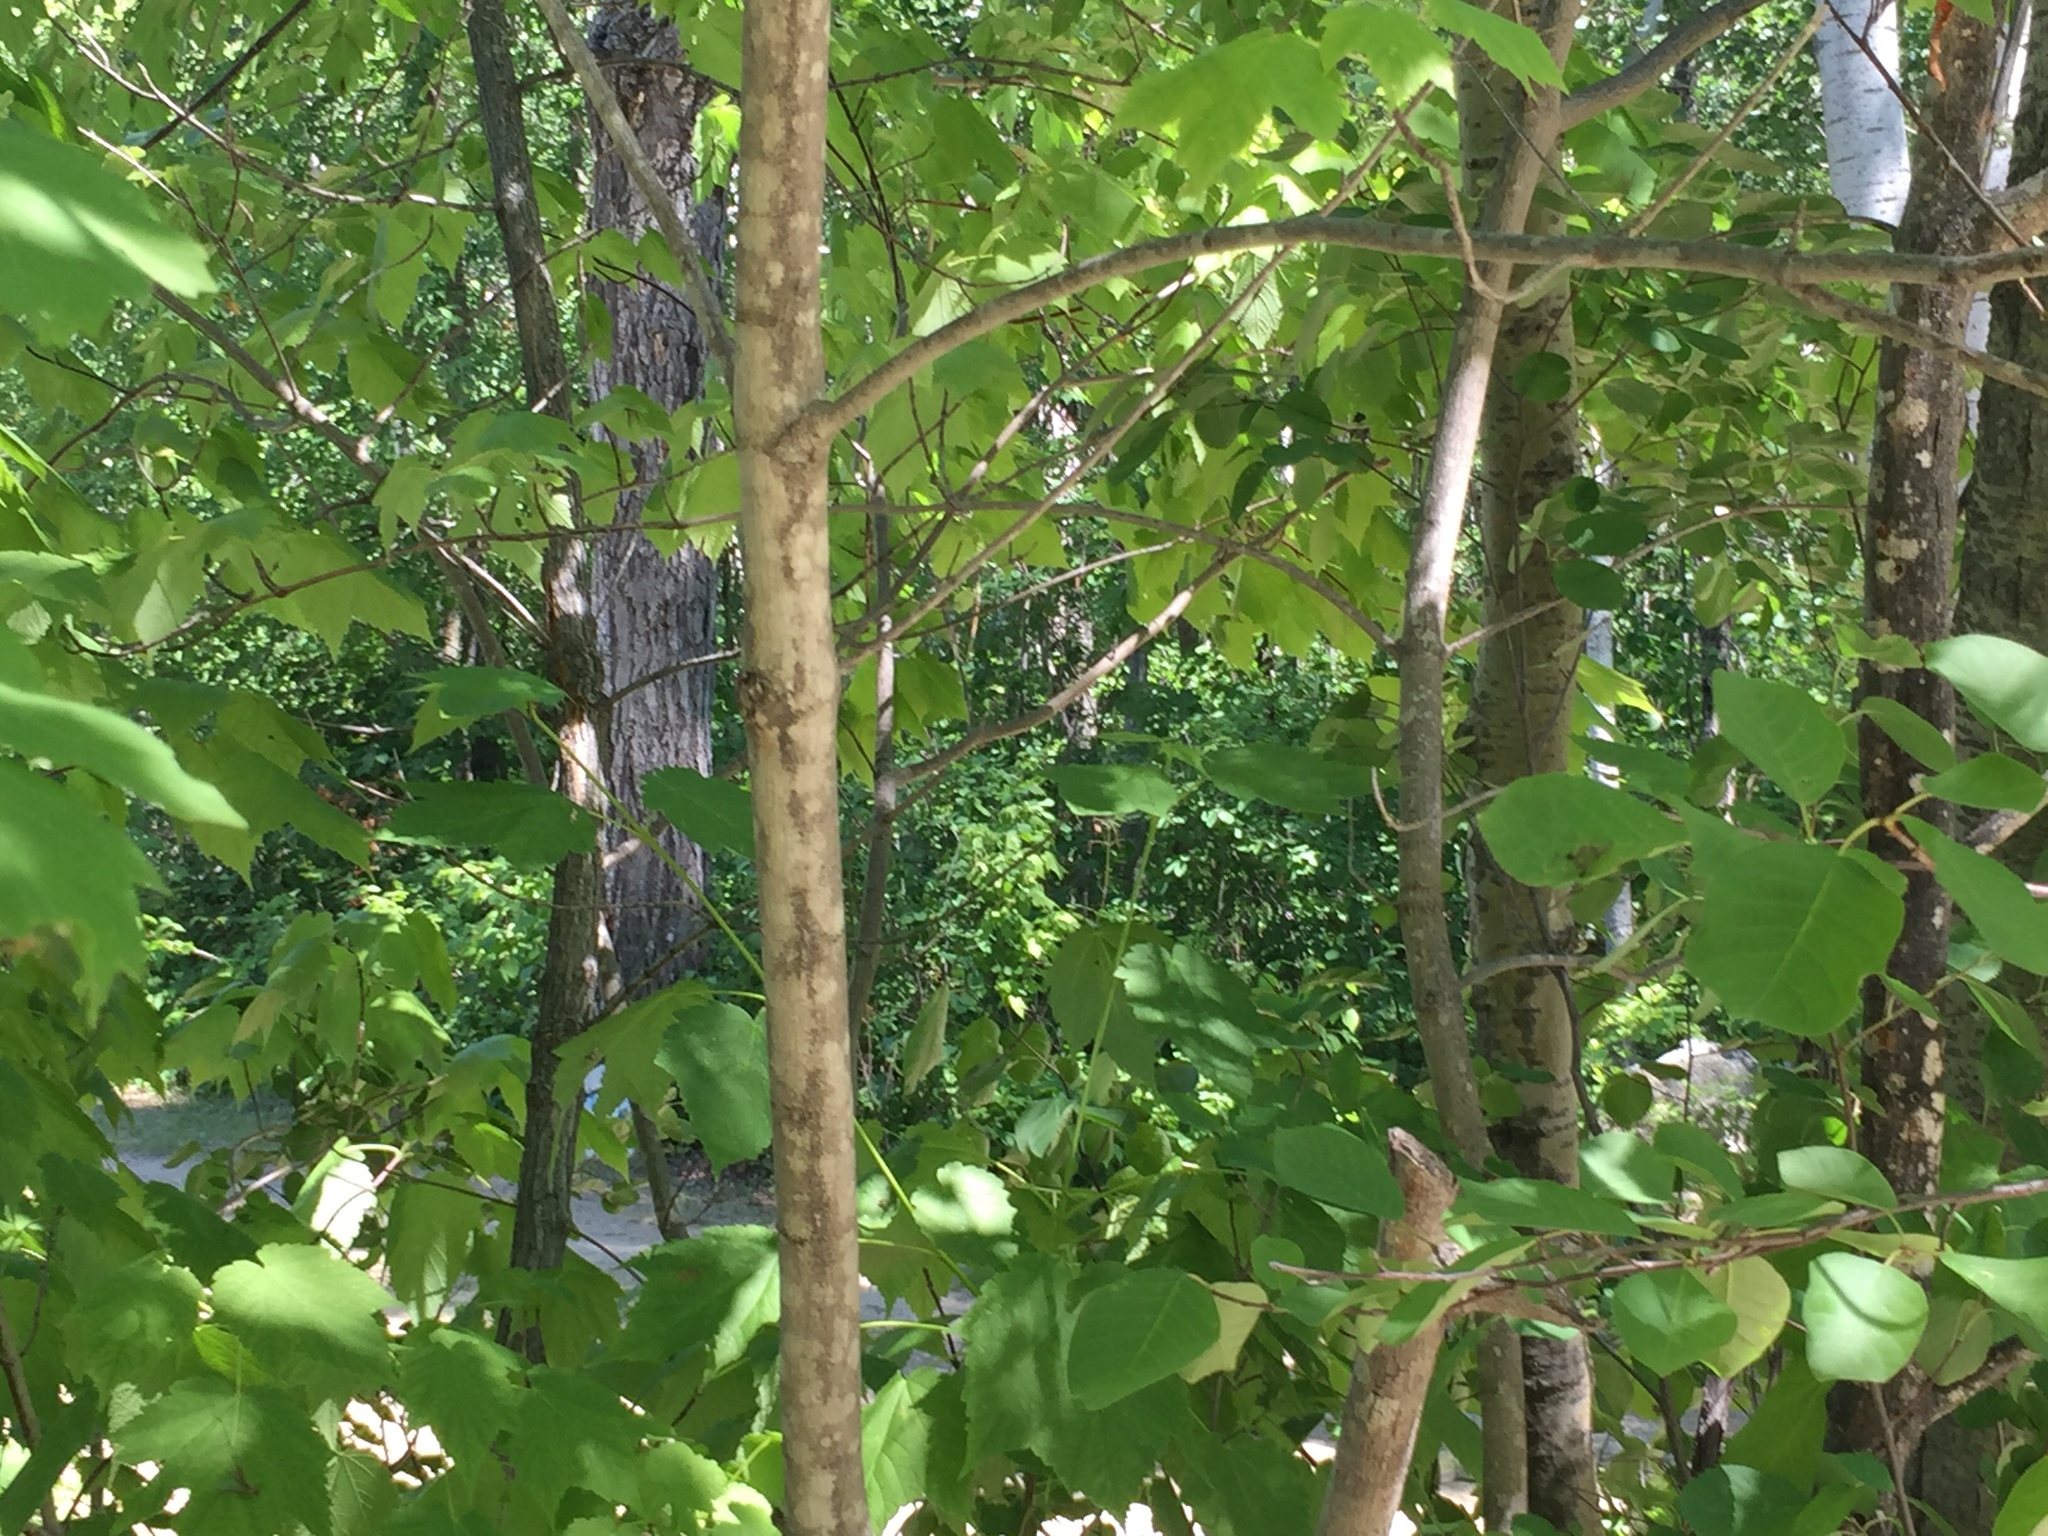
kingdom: Plantae
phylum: Tracheophyta
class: Magnoliopsida
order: Sapindales
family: Sapindaceae
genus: Acer
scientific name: Acer spicatum
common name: Mountain maple
